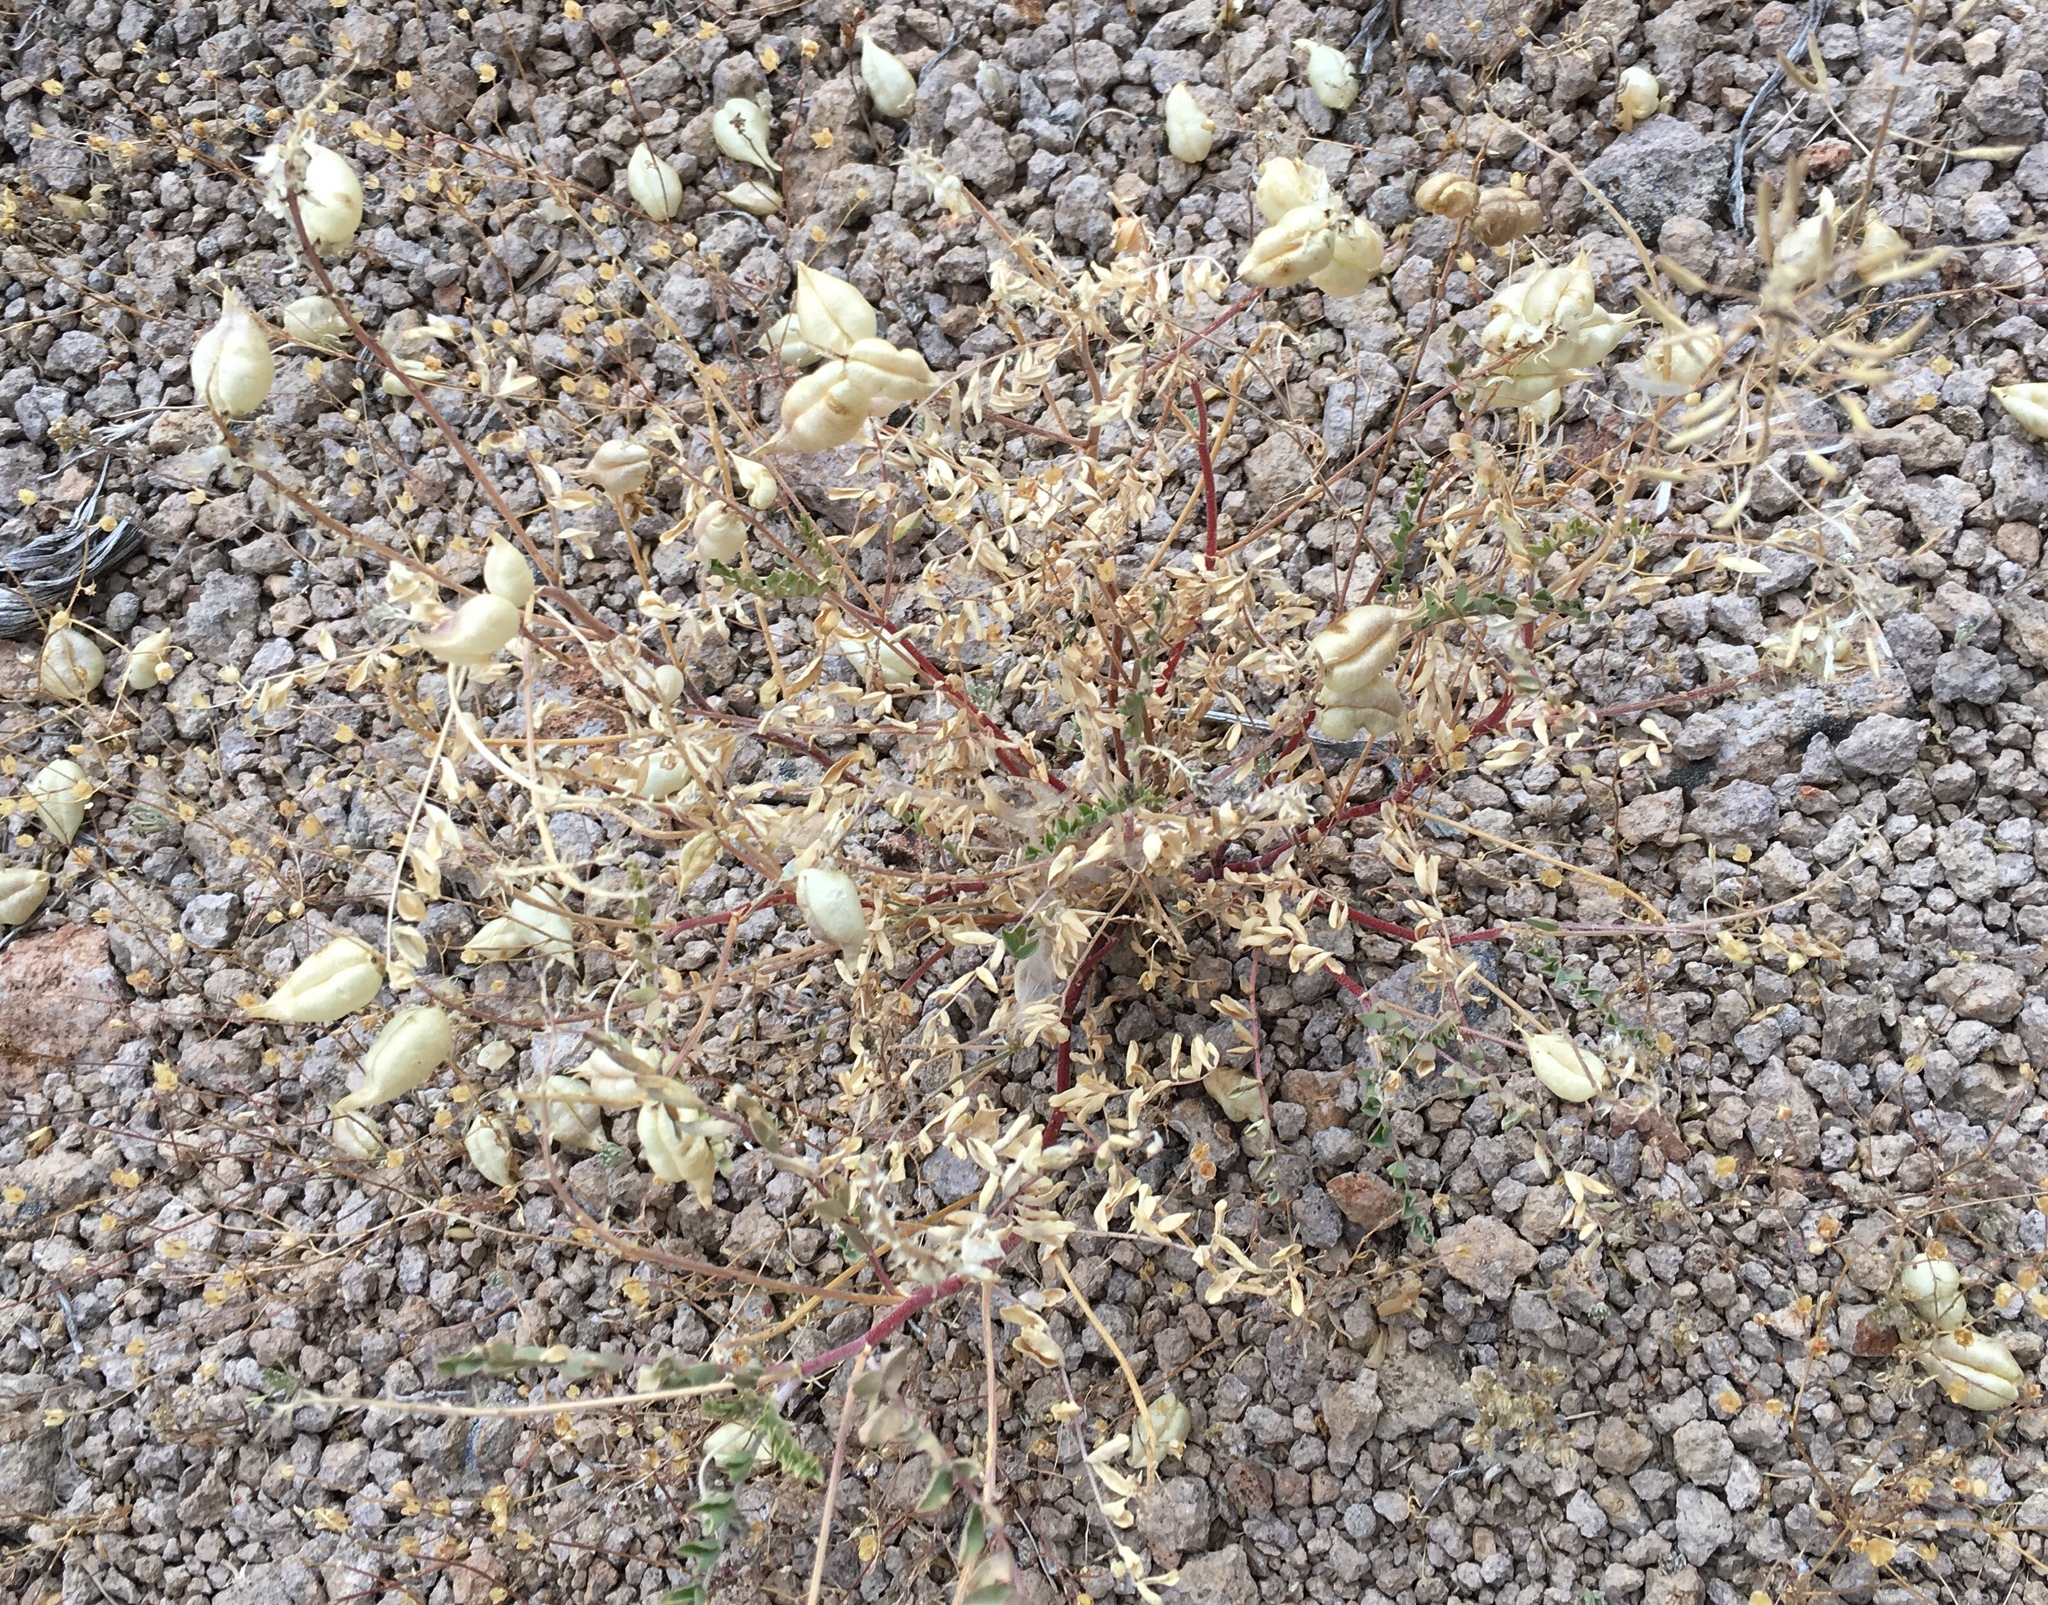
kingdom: Plantae
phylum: Tracheophyta
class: Magnoliopsida
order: Fabales
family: Fabaceae
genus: Astragalus
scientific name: Astragalus lentiginosus
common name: Freckled milkvetch
